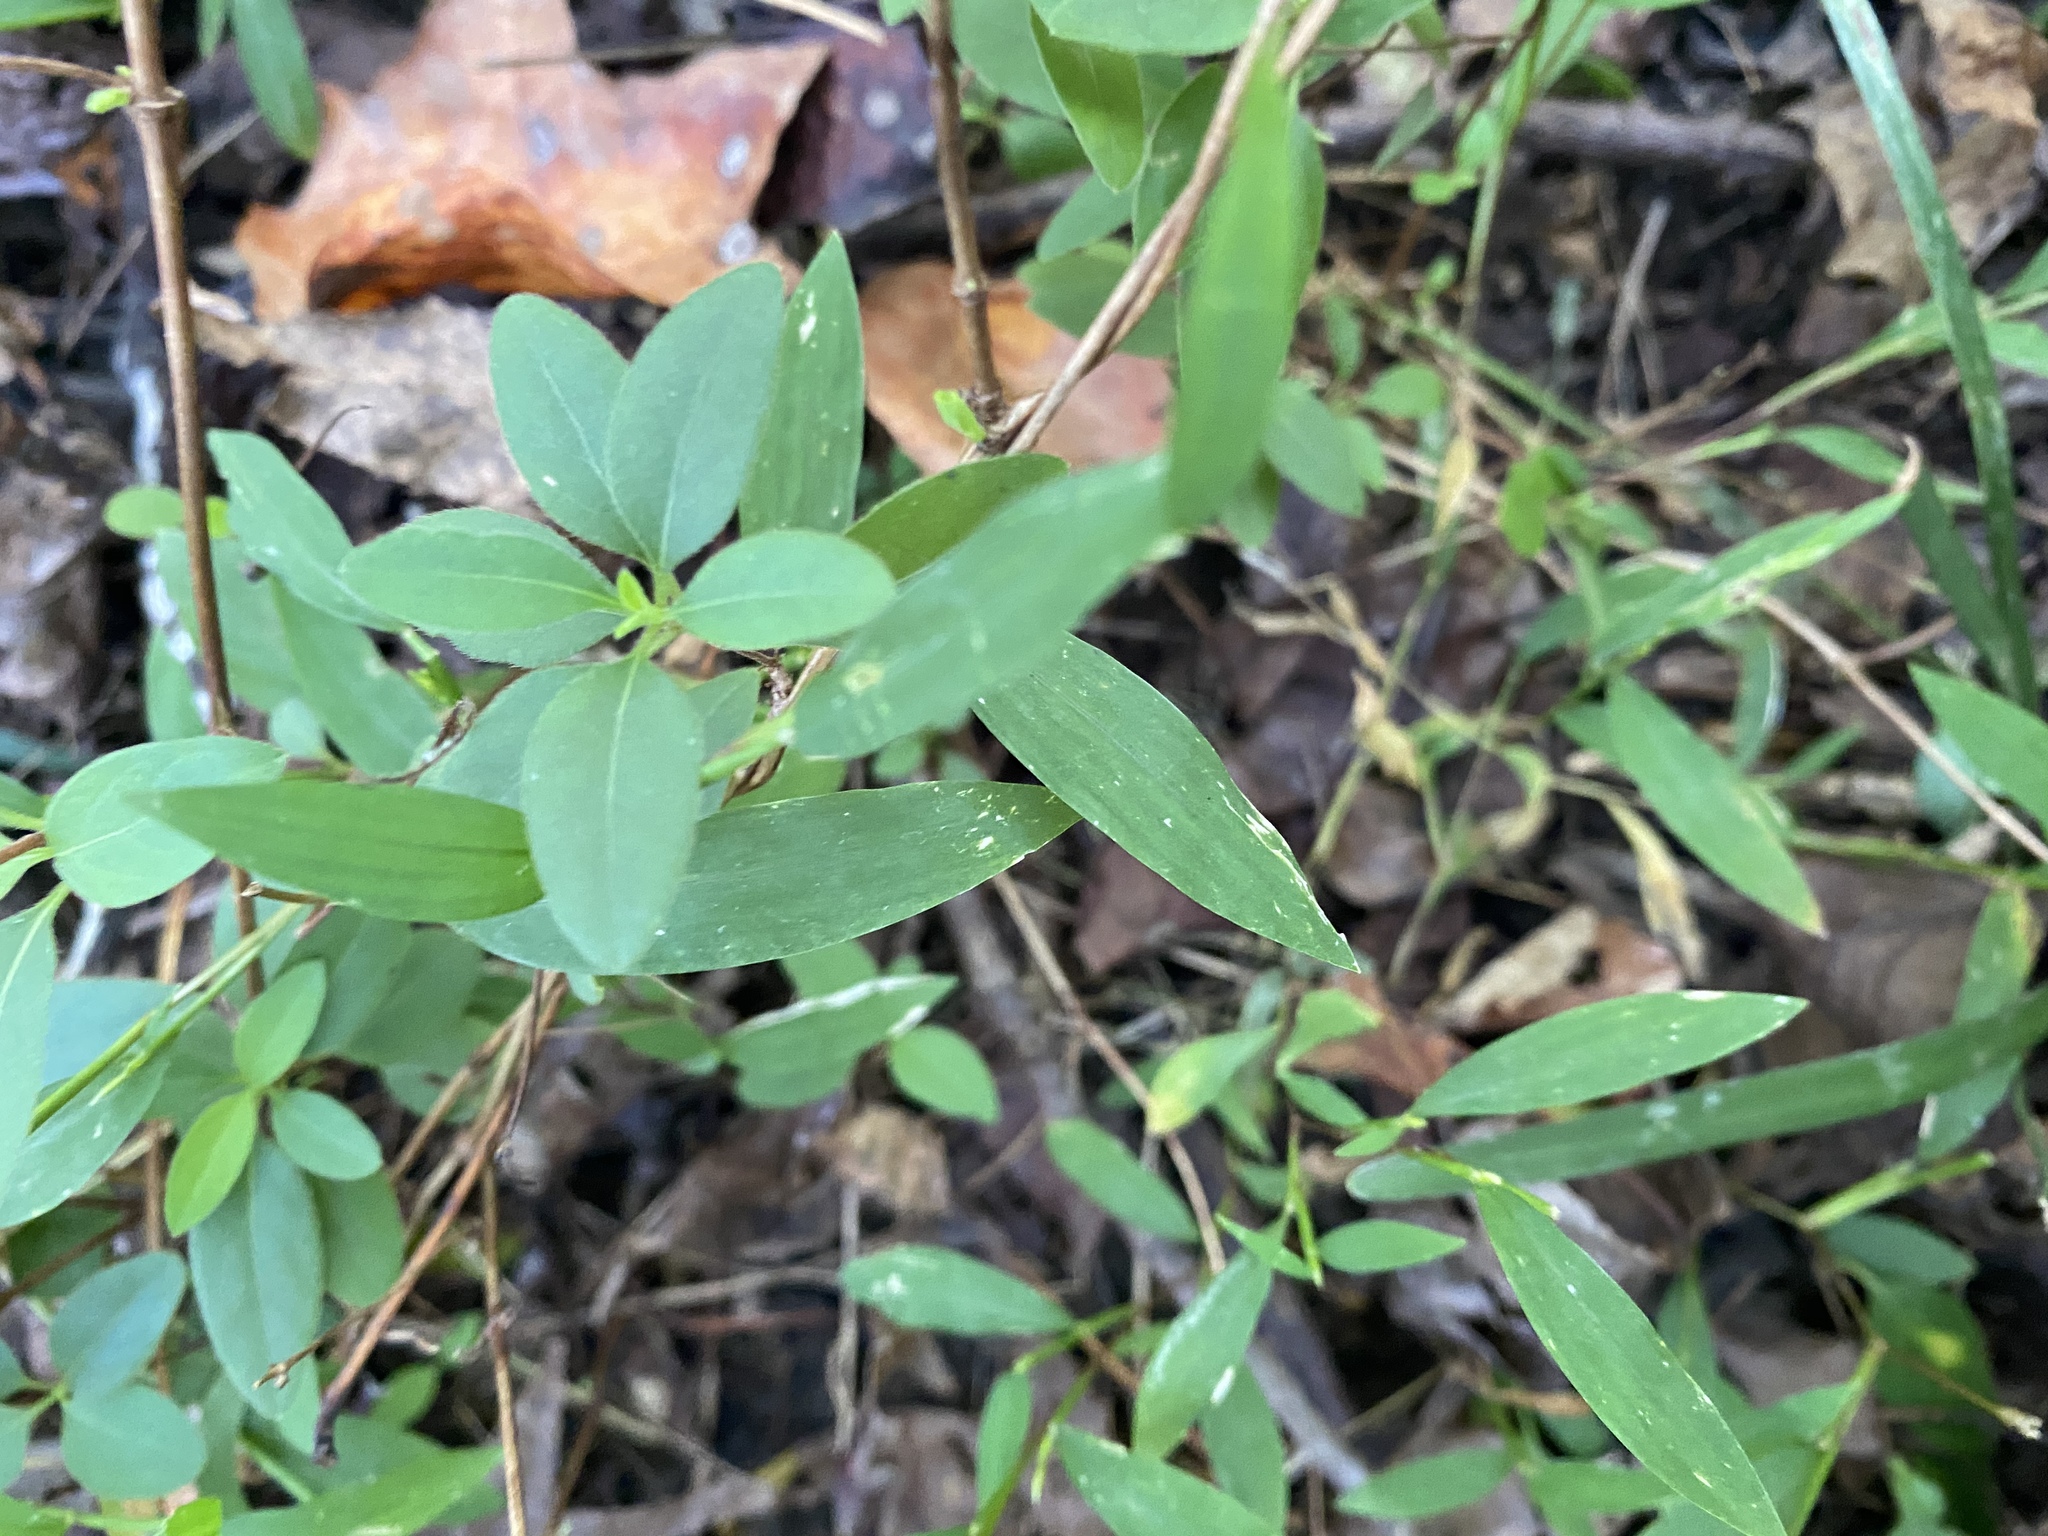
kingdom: Plantae
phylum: Tracheophyta
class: Magnoliopsida
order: Dipsacales
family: Caprifoliaceae
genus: Lonicera
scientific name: Lonicera japonica
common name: Japanese honeysuckle
